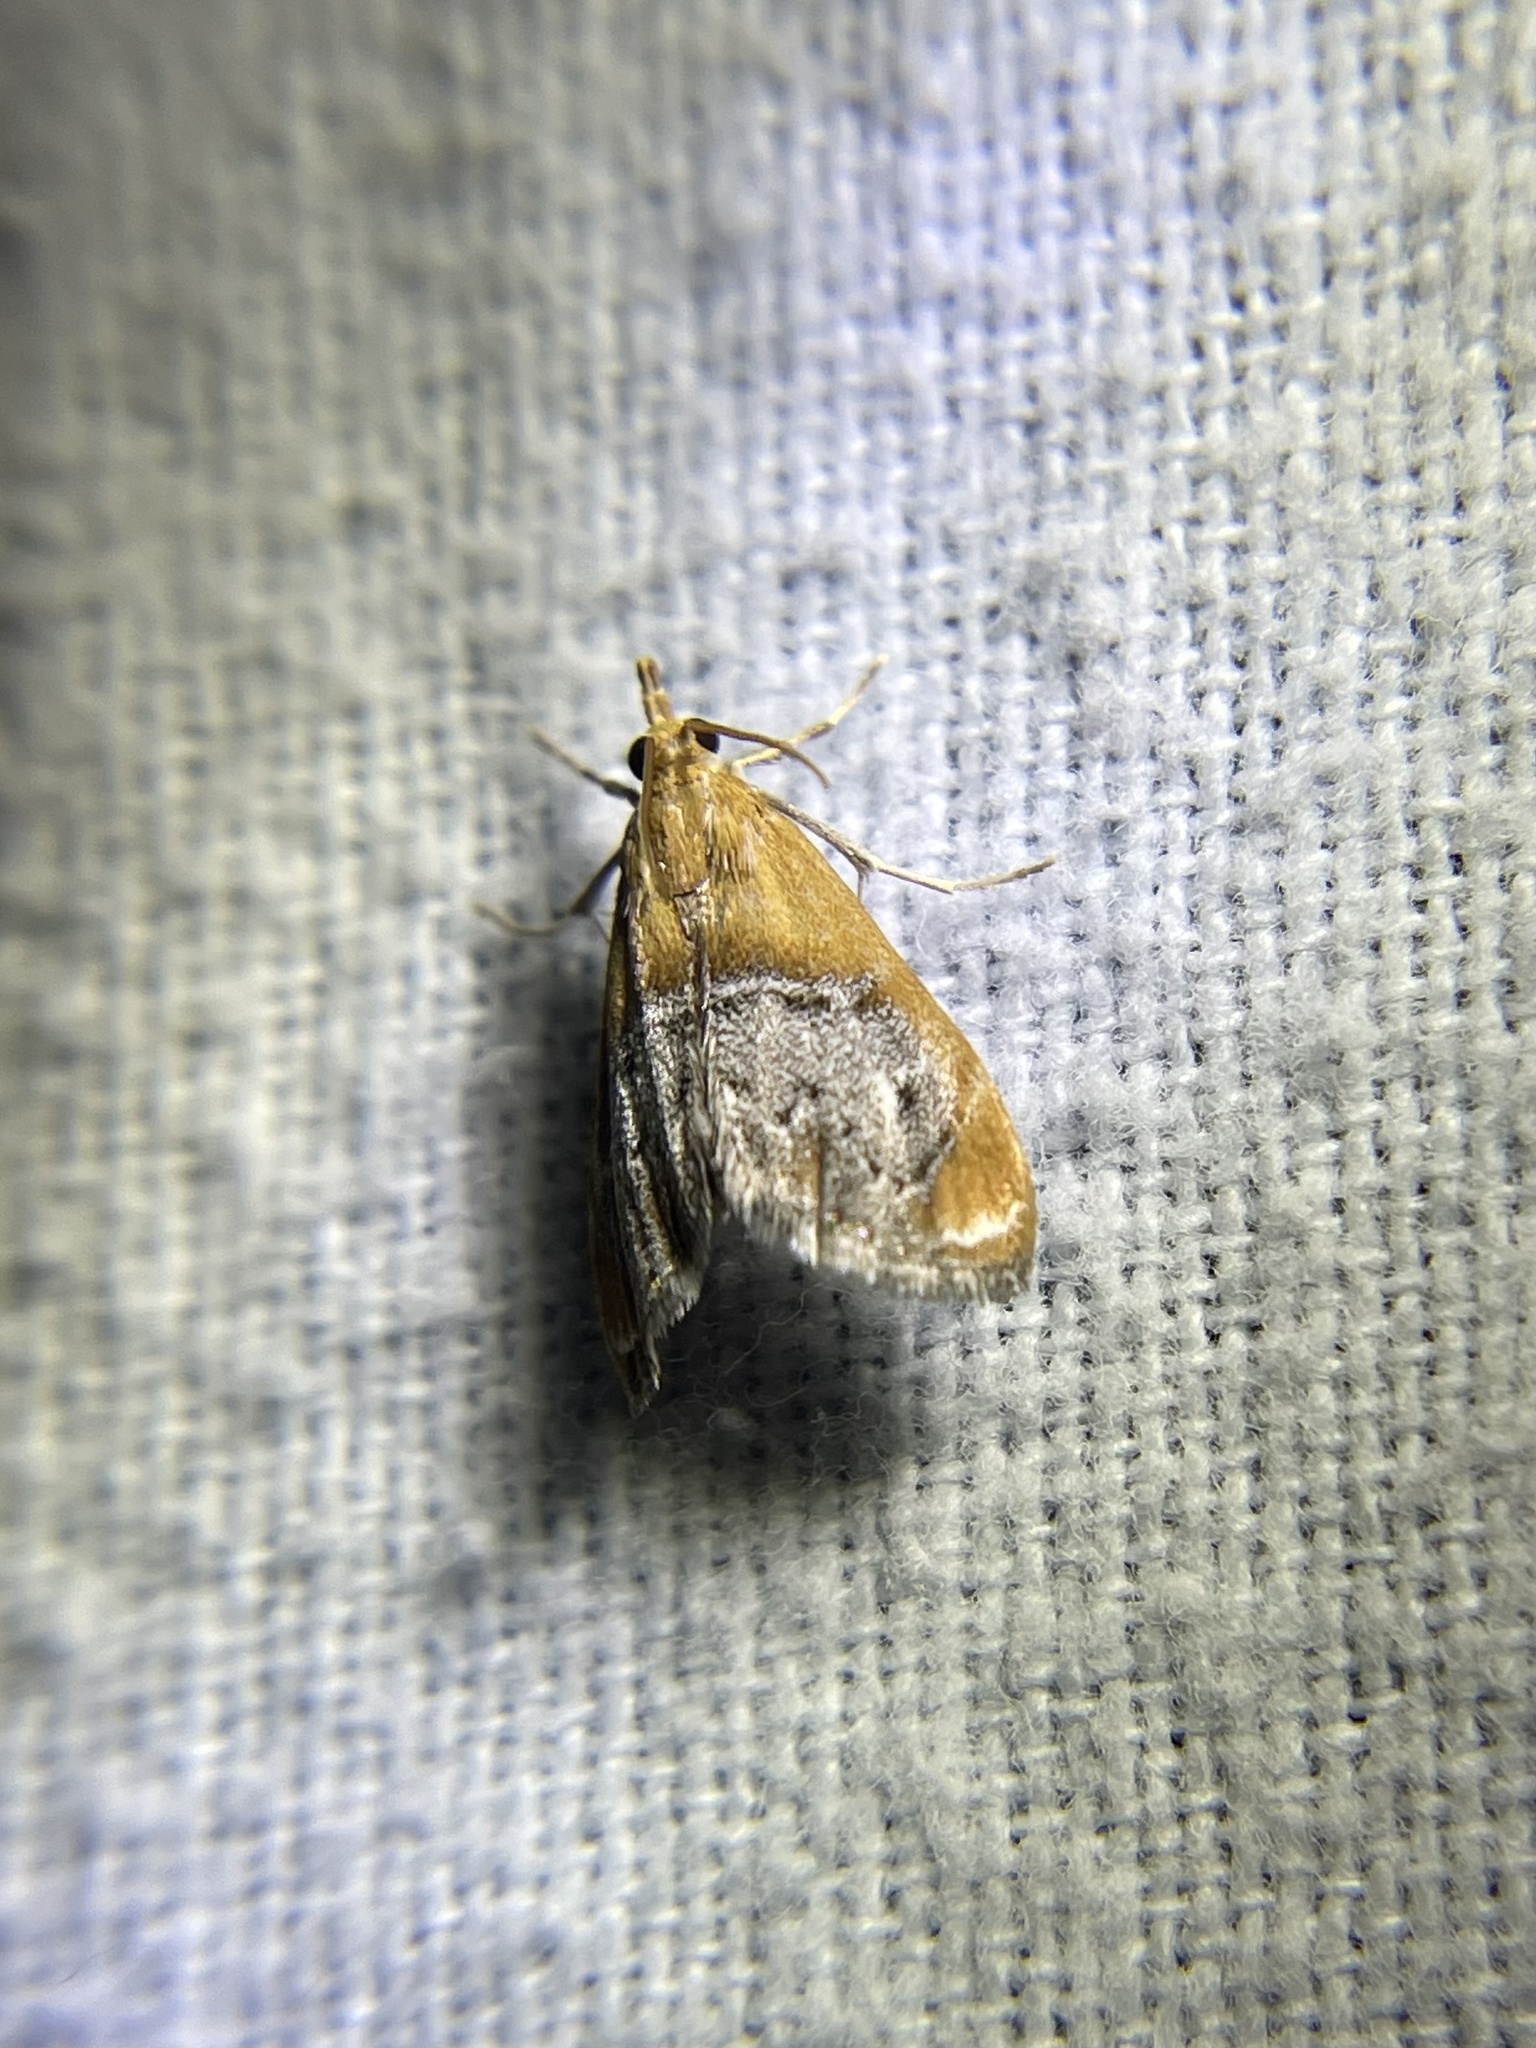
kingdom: Animalia
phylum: Arthropoda
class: Insecta
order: Lepidoptera
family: Crambidae
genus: Chalcoela
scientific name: Chalcoela iphitalis
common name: Sooty-winged chalcoela moth
